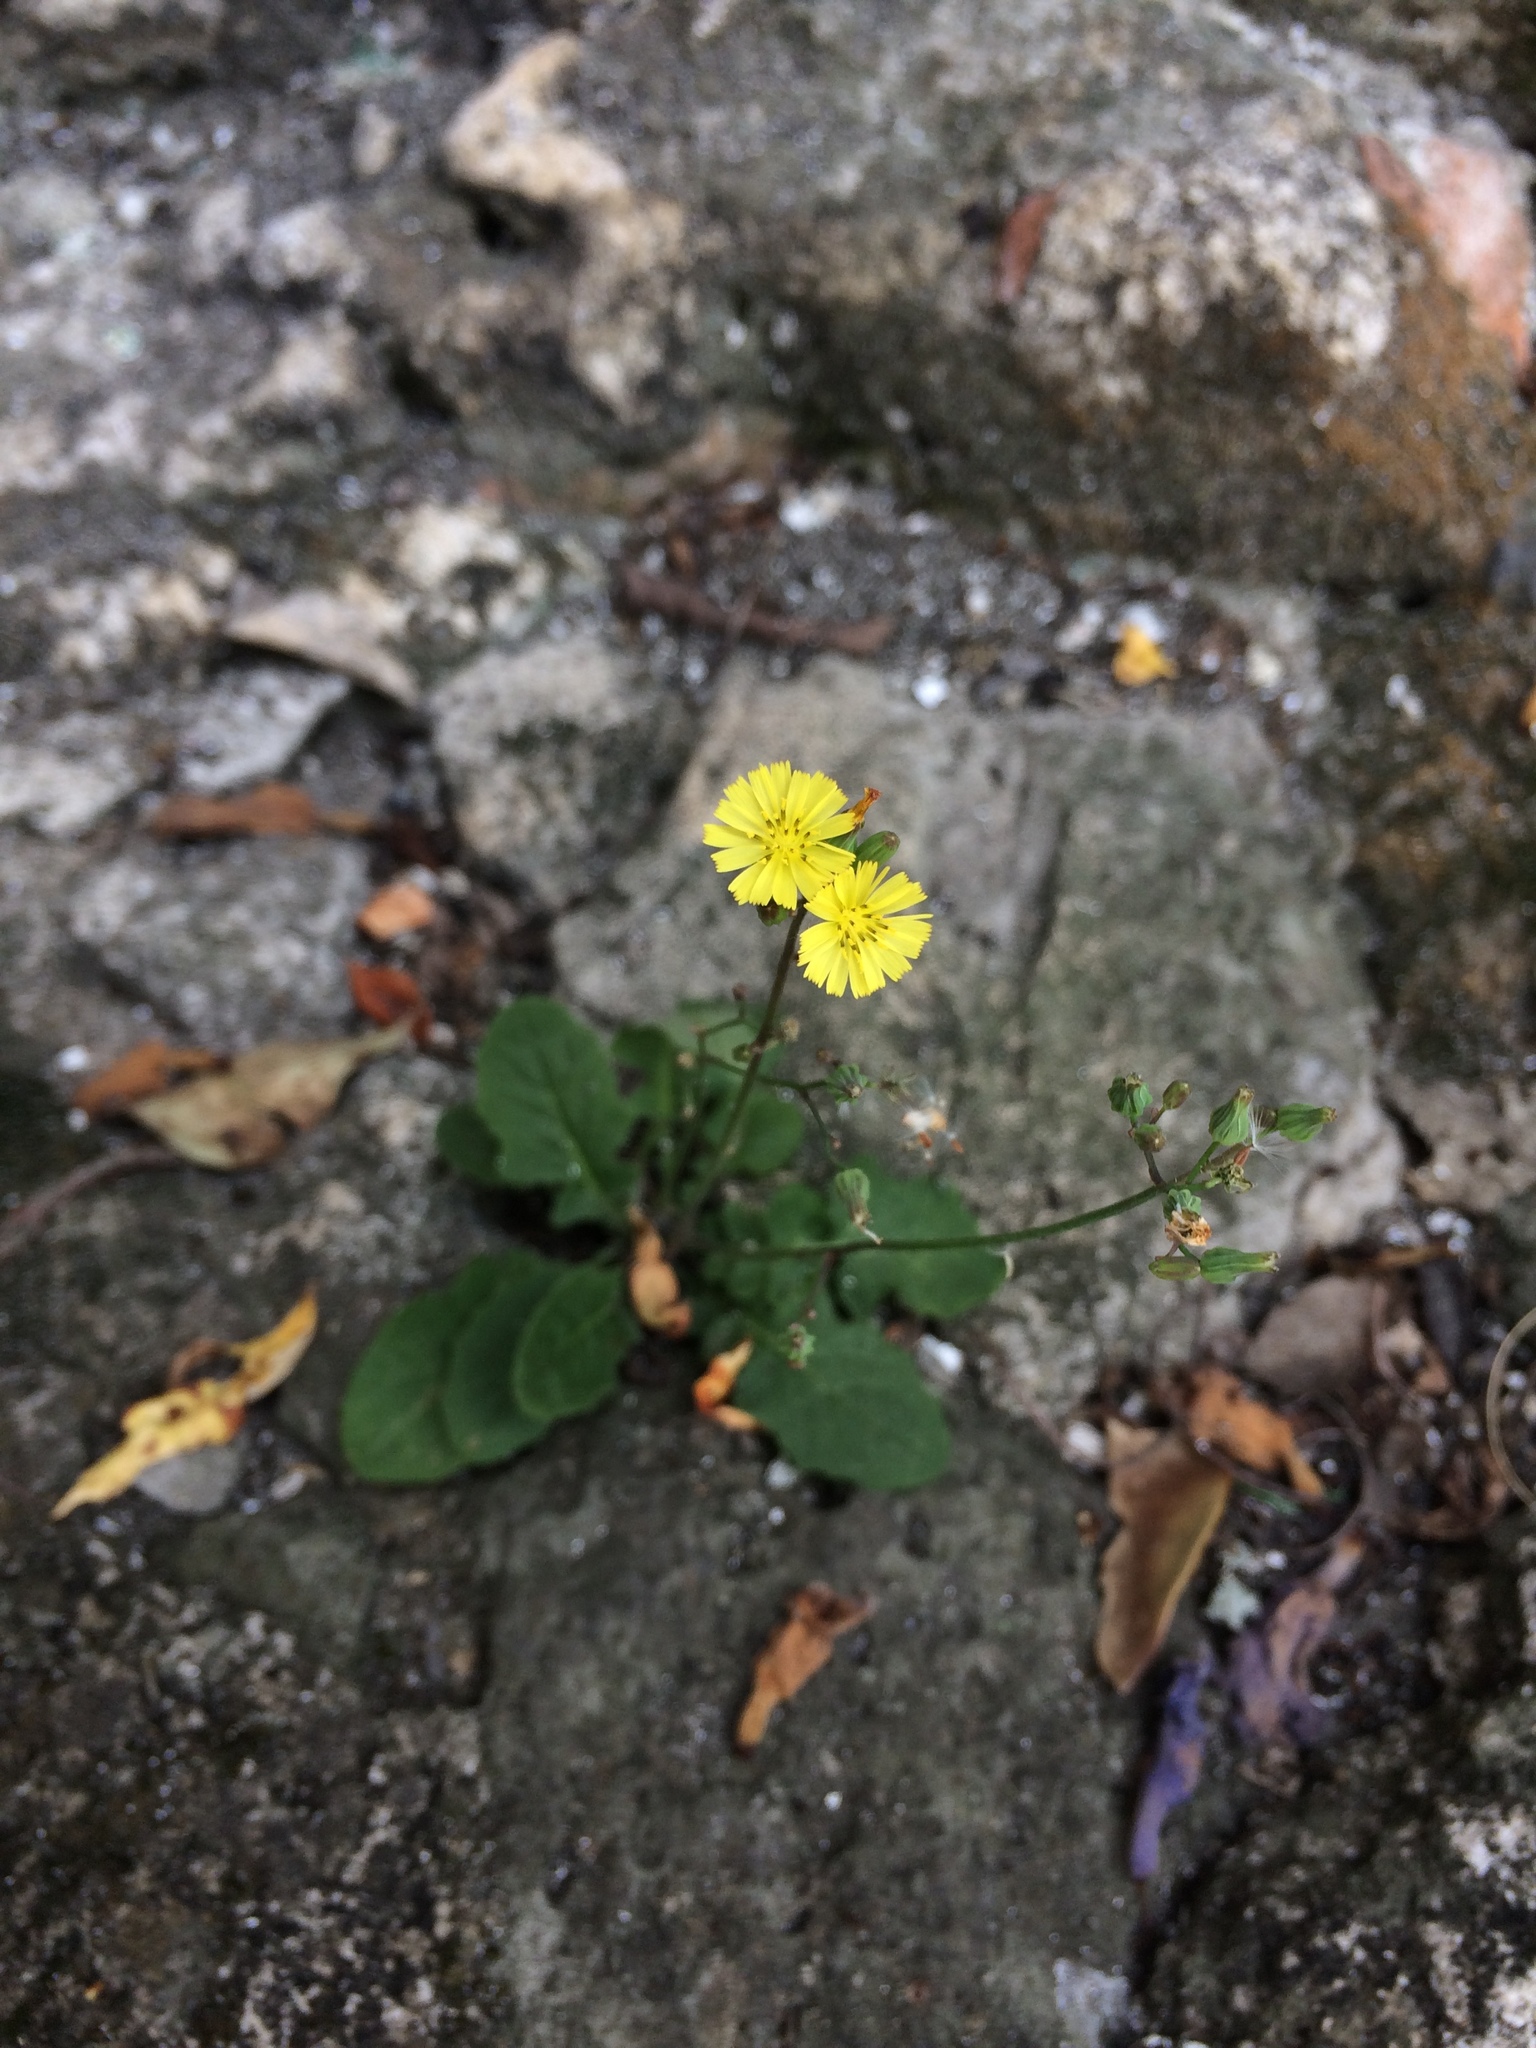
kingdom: Plantae
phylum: Tracheophyta
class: Magnoliopsida
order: Asterales
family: Asteraceae
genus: Youngia
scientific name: Youngia japonica
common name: Oriental false hawksbeard
